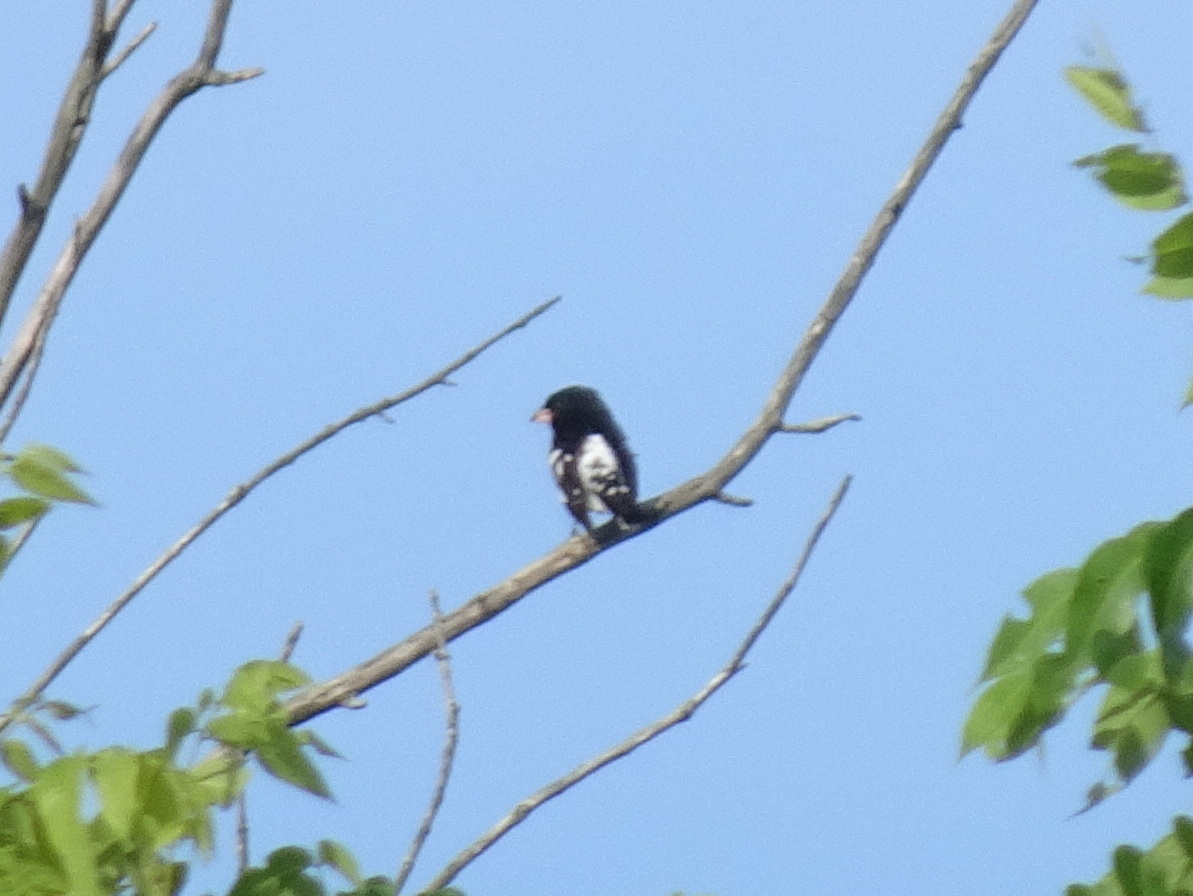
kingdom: Animalia
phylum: Chordata
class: Aves
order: Passeriformes
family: Cardinalidae
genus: Pheucticus
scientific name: Pheucticus ludovicianus
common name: Rose-breasted grosbeak
